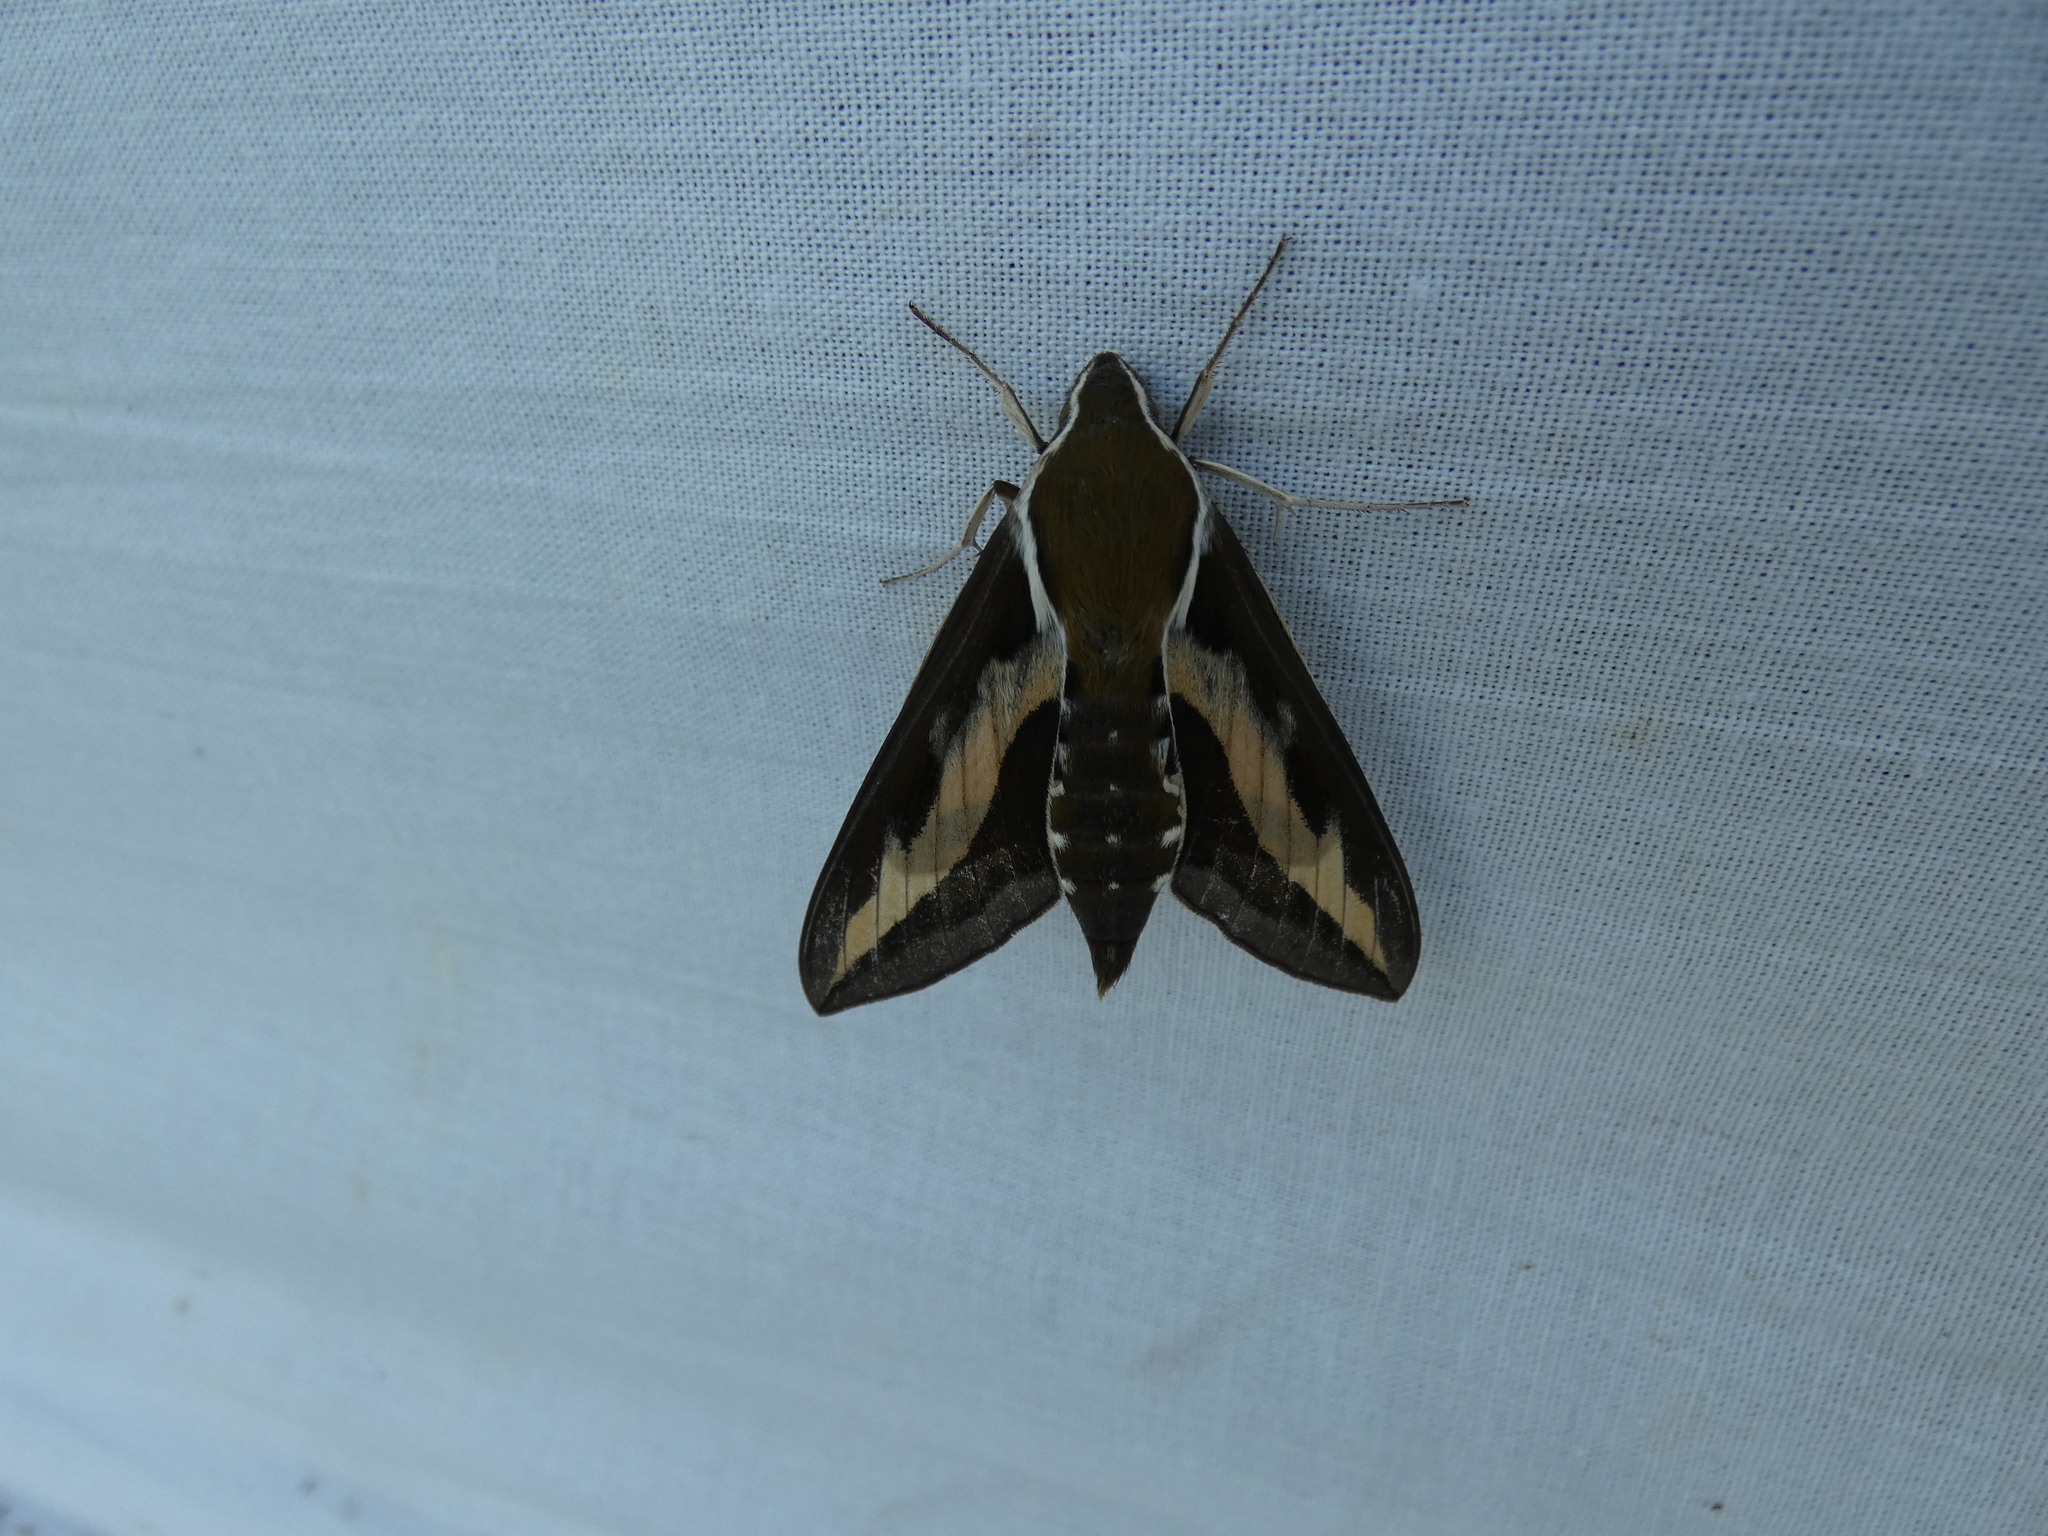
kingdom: Animalia
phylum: Arthropoda
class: Insecta
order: Lepidoptera
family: Sphingidae
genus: Hyles
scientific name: Hyles gallii
